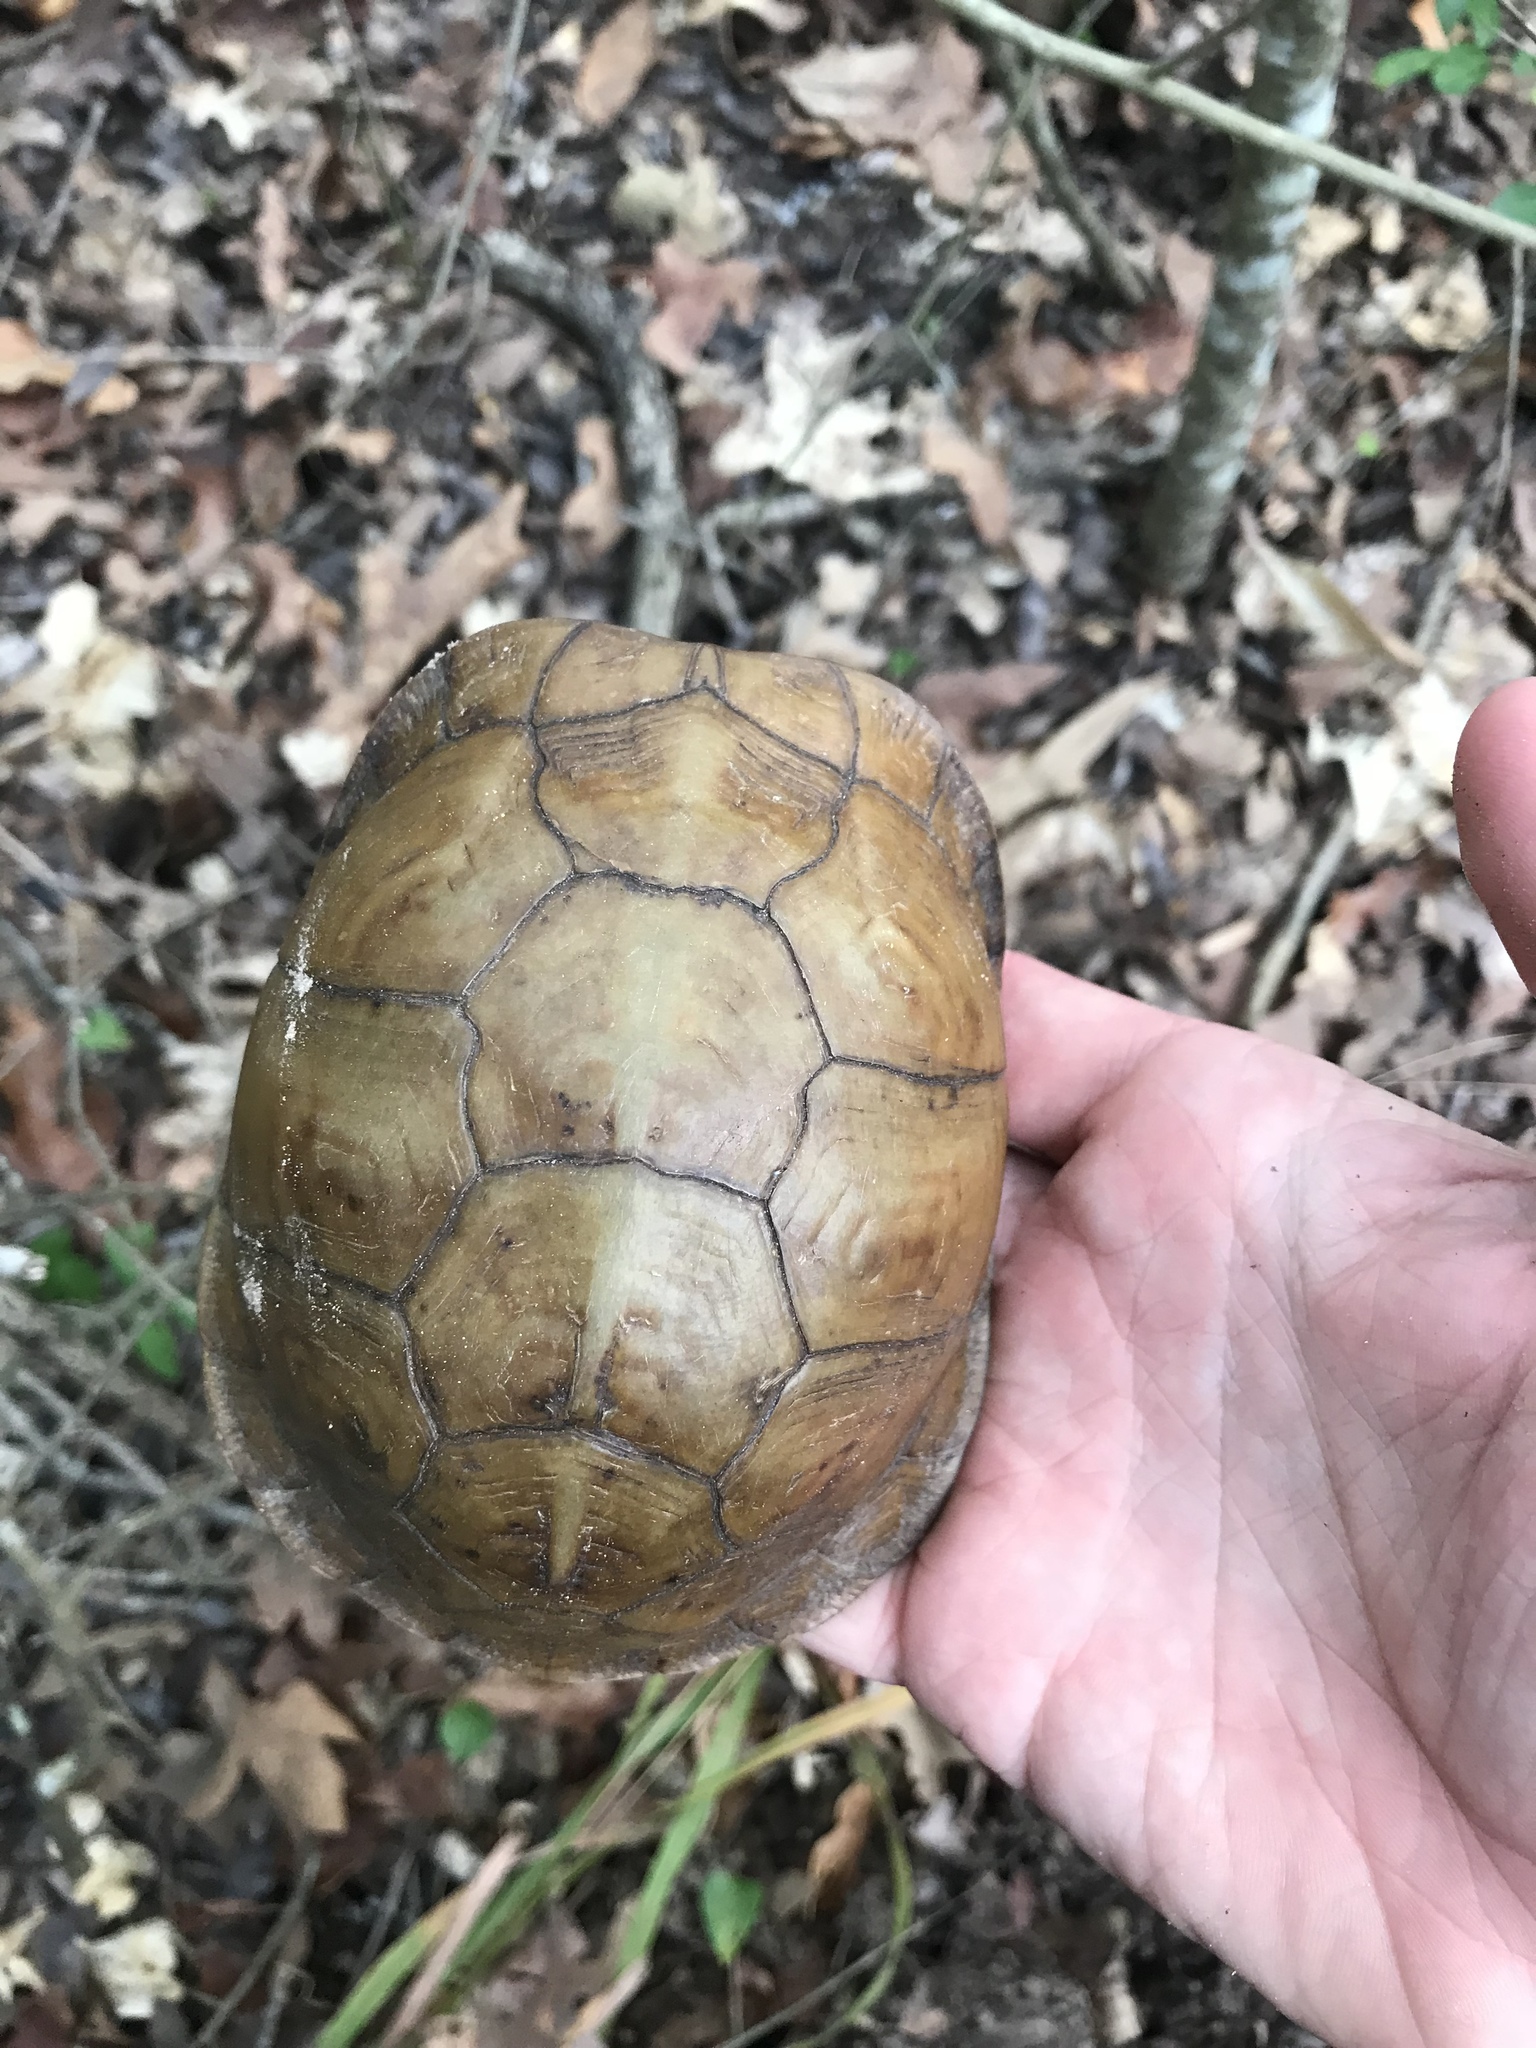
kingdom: Animalia
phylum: Chordata
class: Testudines
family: Emydidae
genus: Terrapene
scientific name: Terrapene carolina
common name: Common box turtle
